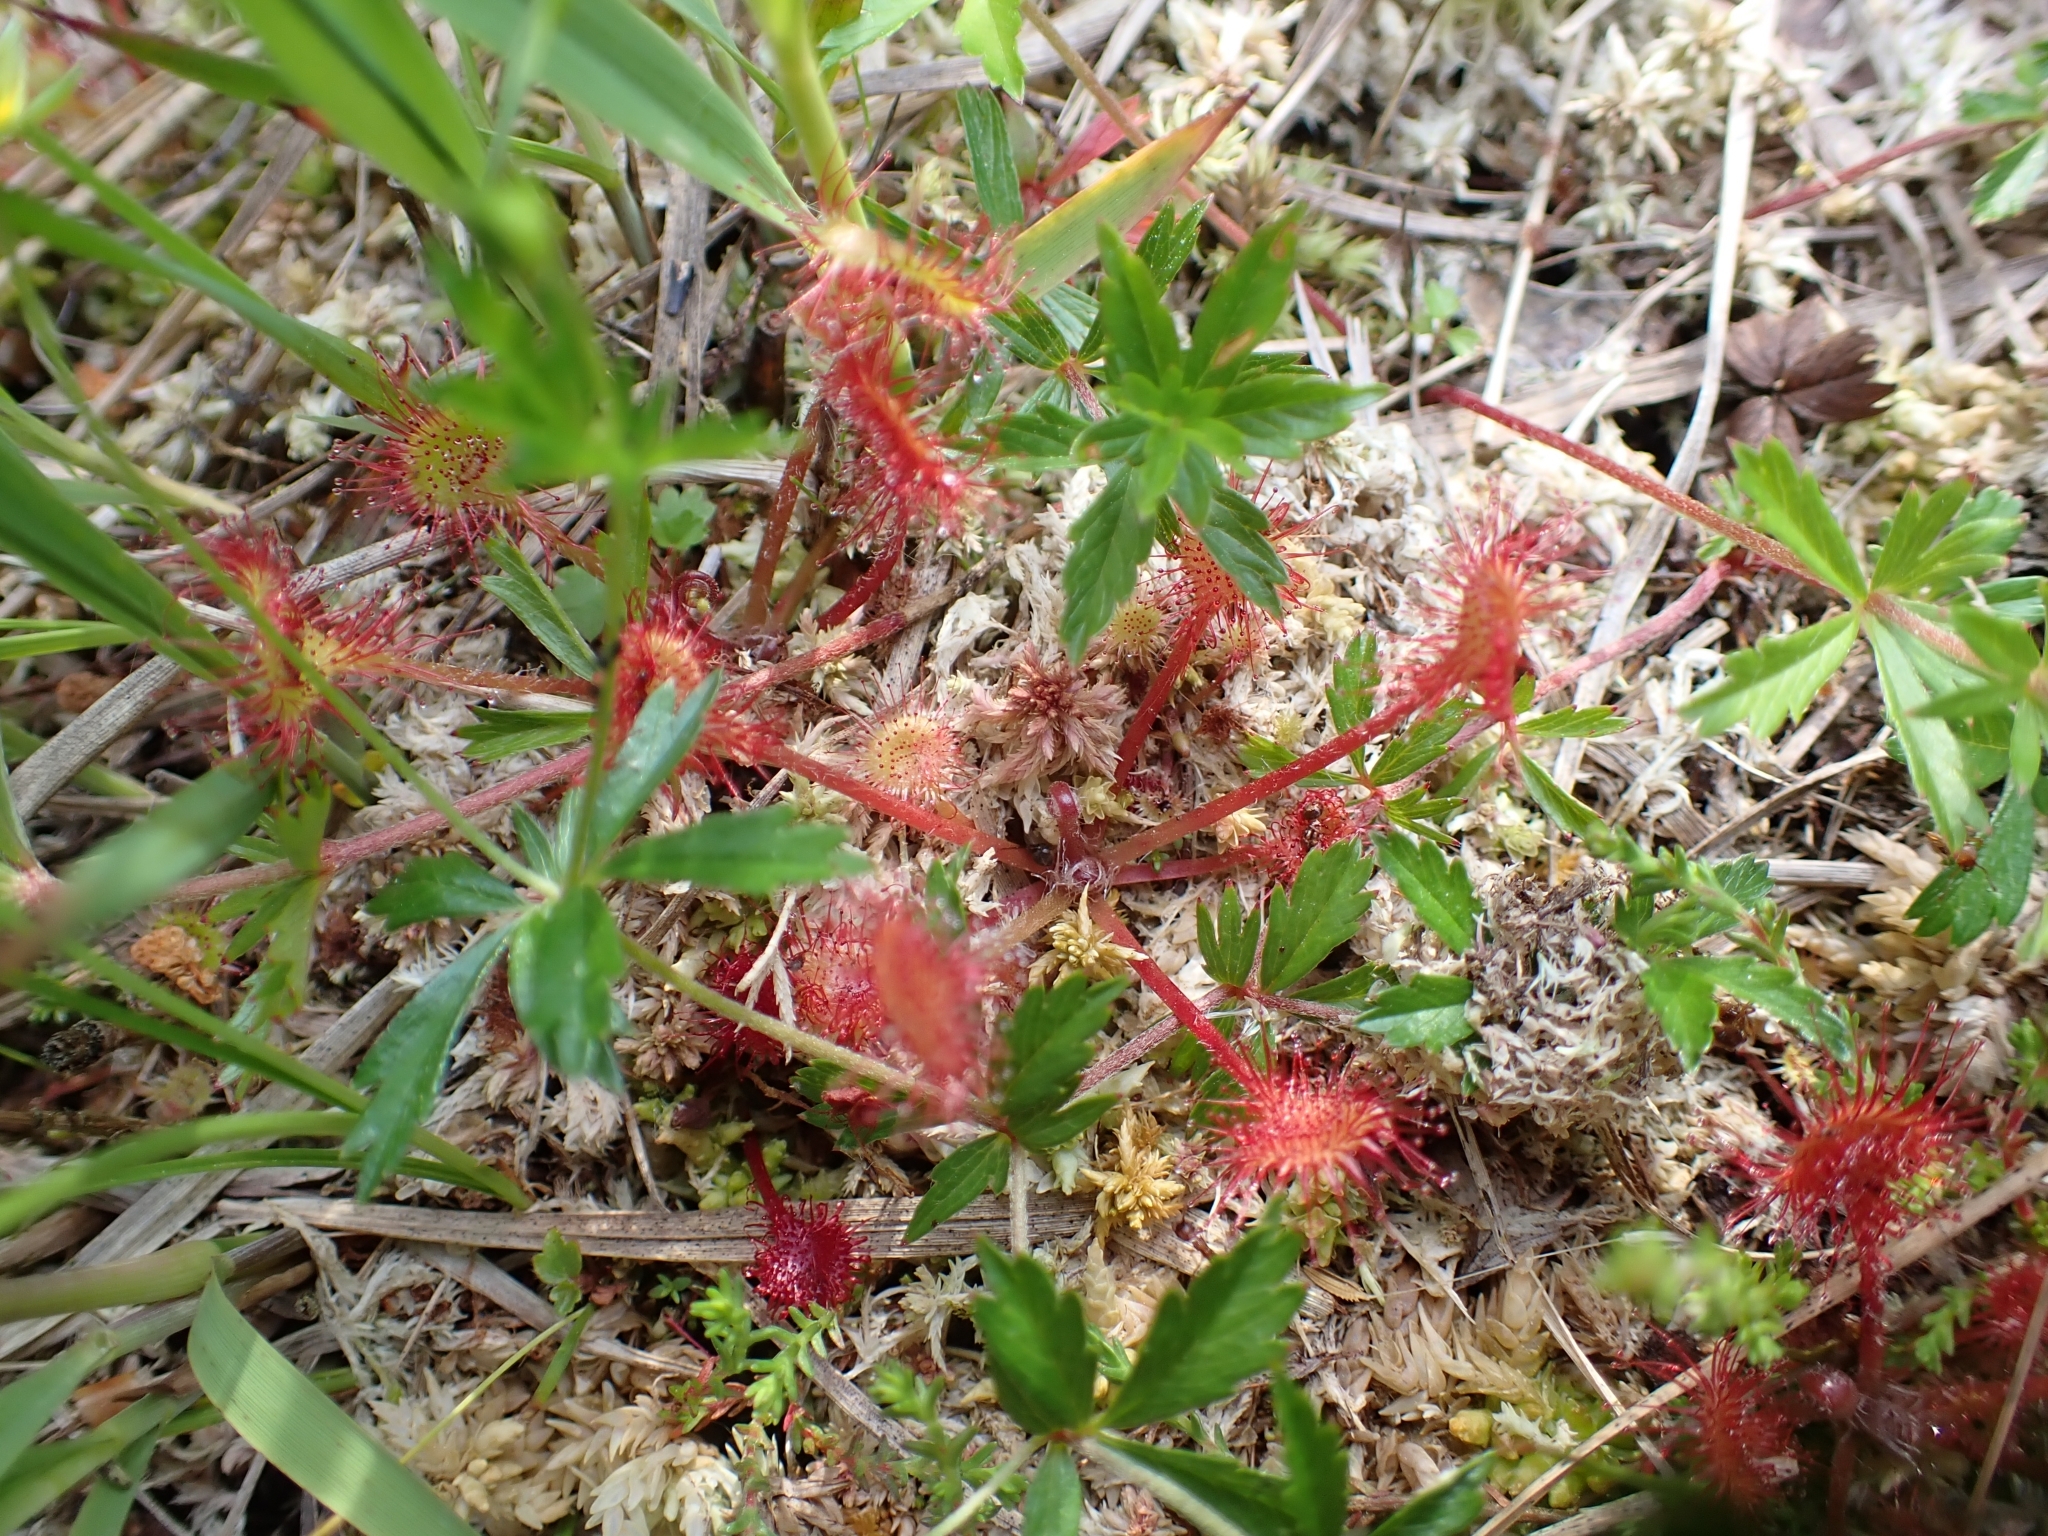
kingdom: Plantae
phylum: Tracheophyta
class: Magnoliopsida
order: Caryophyllales
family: Droseraceae
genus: Drosera
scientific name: Drosera rotundifolia
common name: Round-leaved sundew
